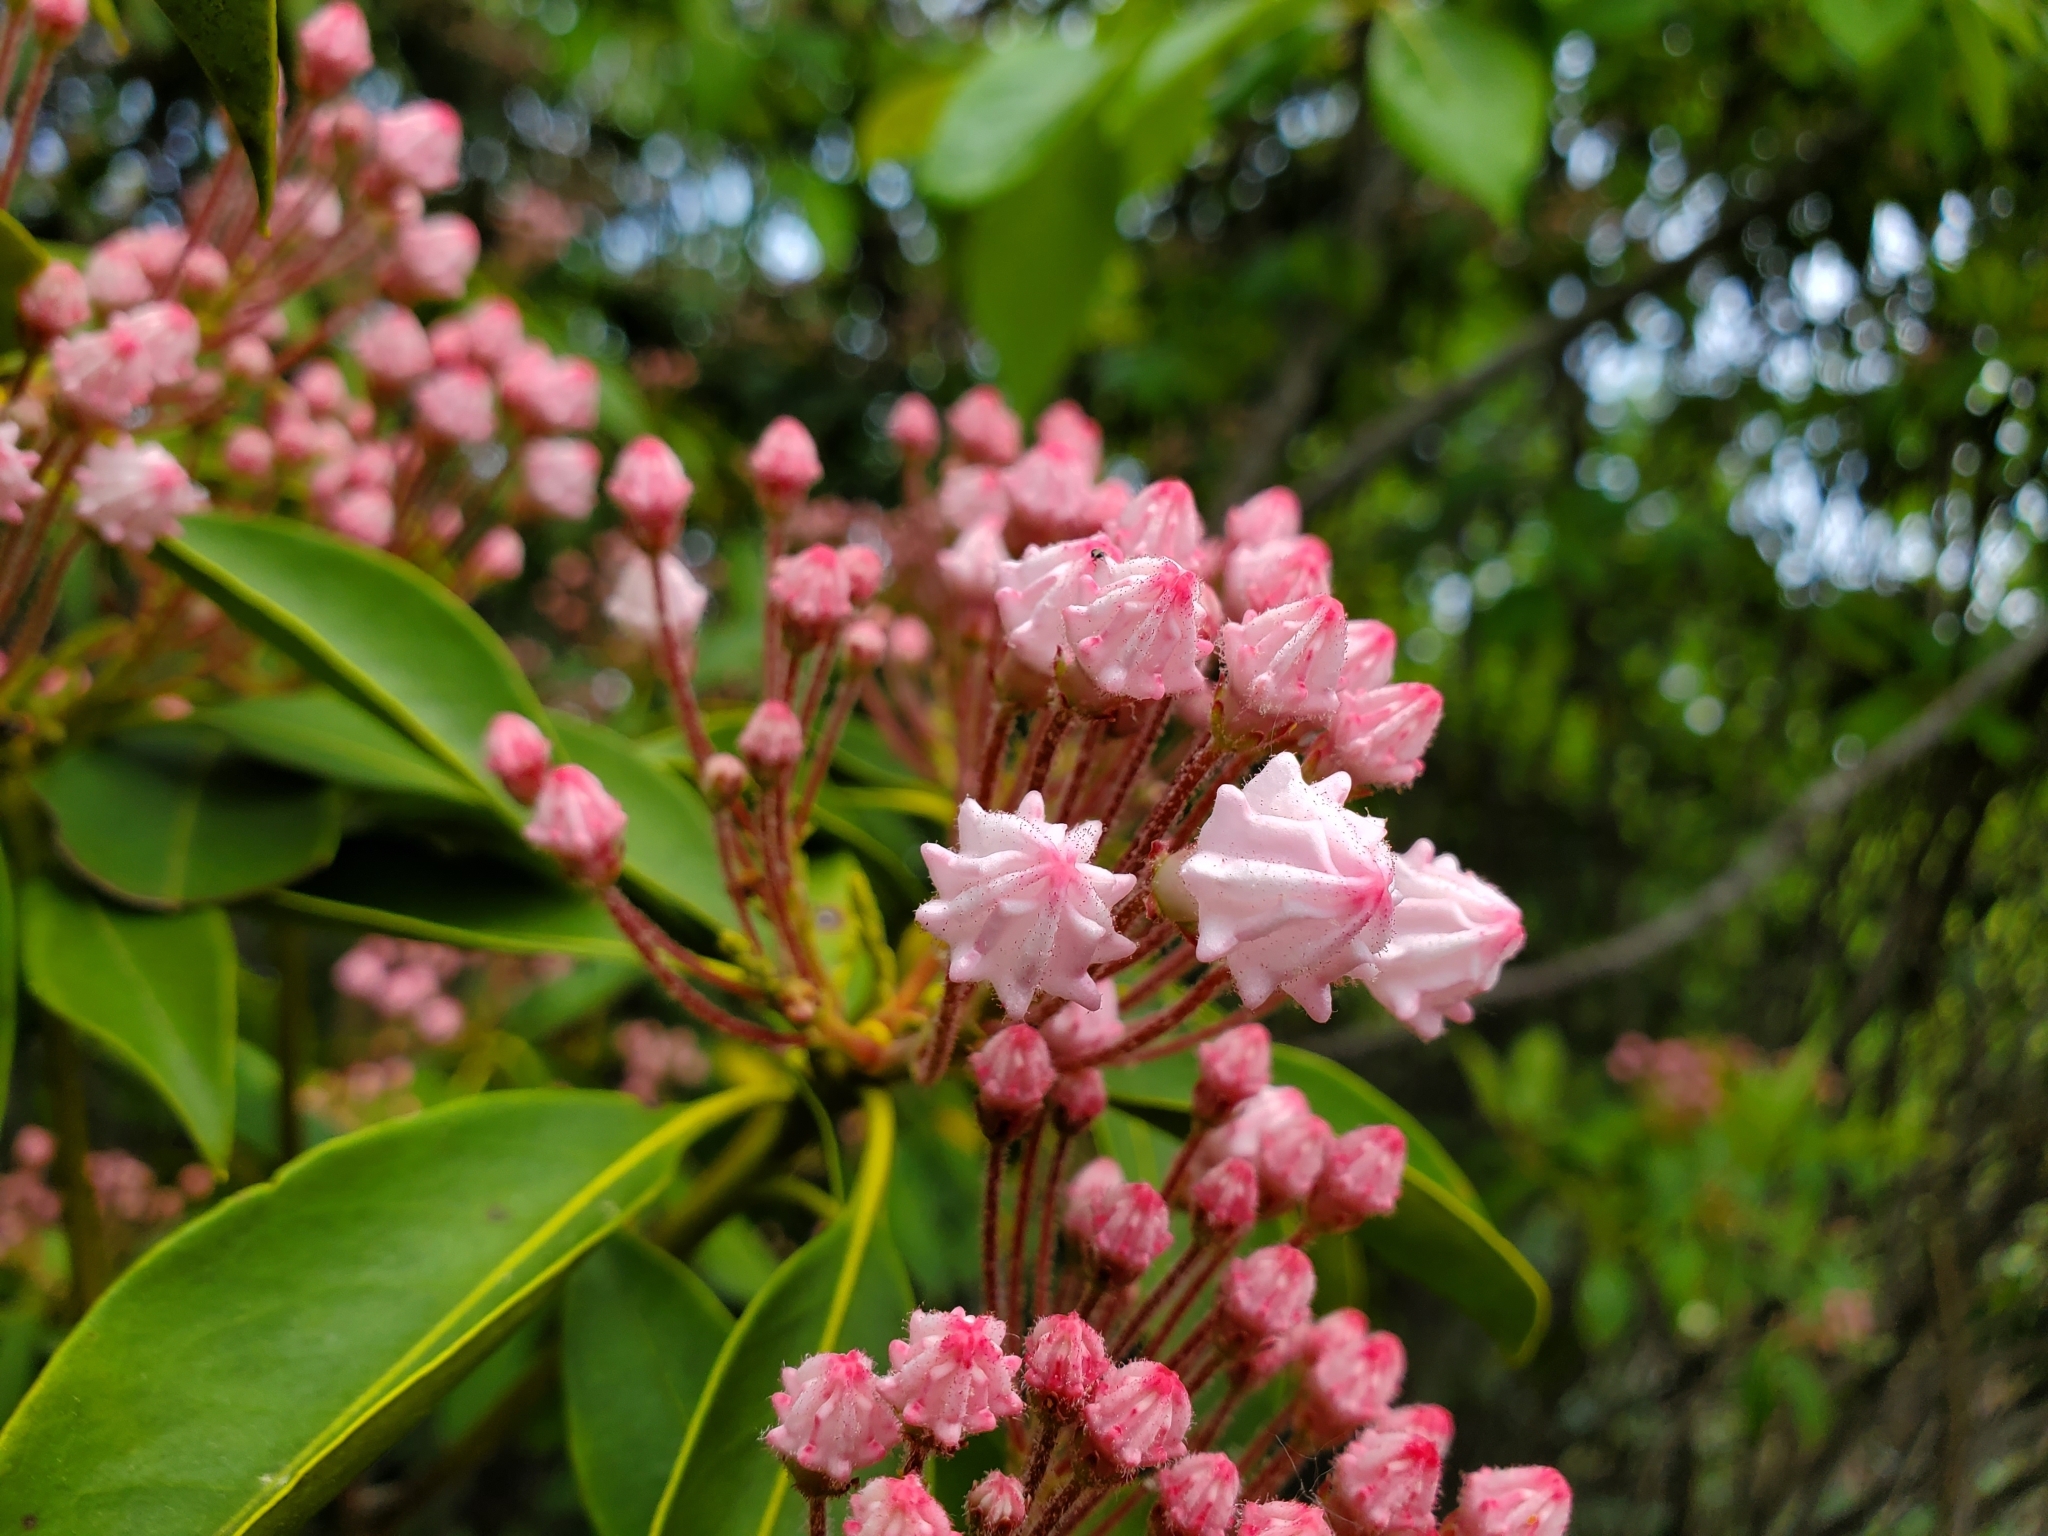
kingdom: Plantae
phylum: Tracheophyta
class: Magnoliopsida
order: Ericales
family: Ericaceae
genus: Kalmia
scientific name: Kalmia latifolia
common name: Mountain-laurel
